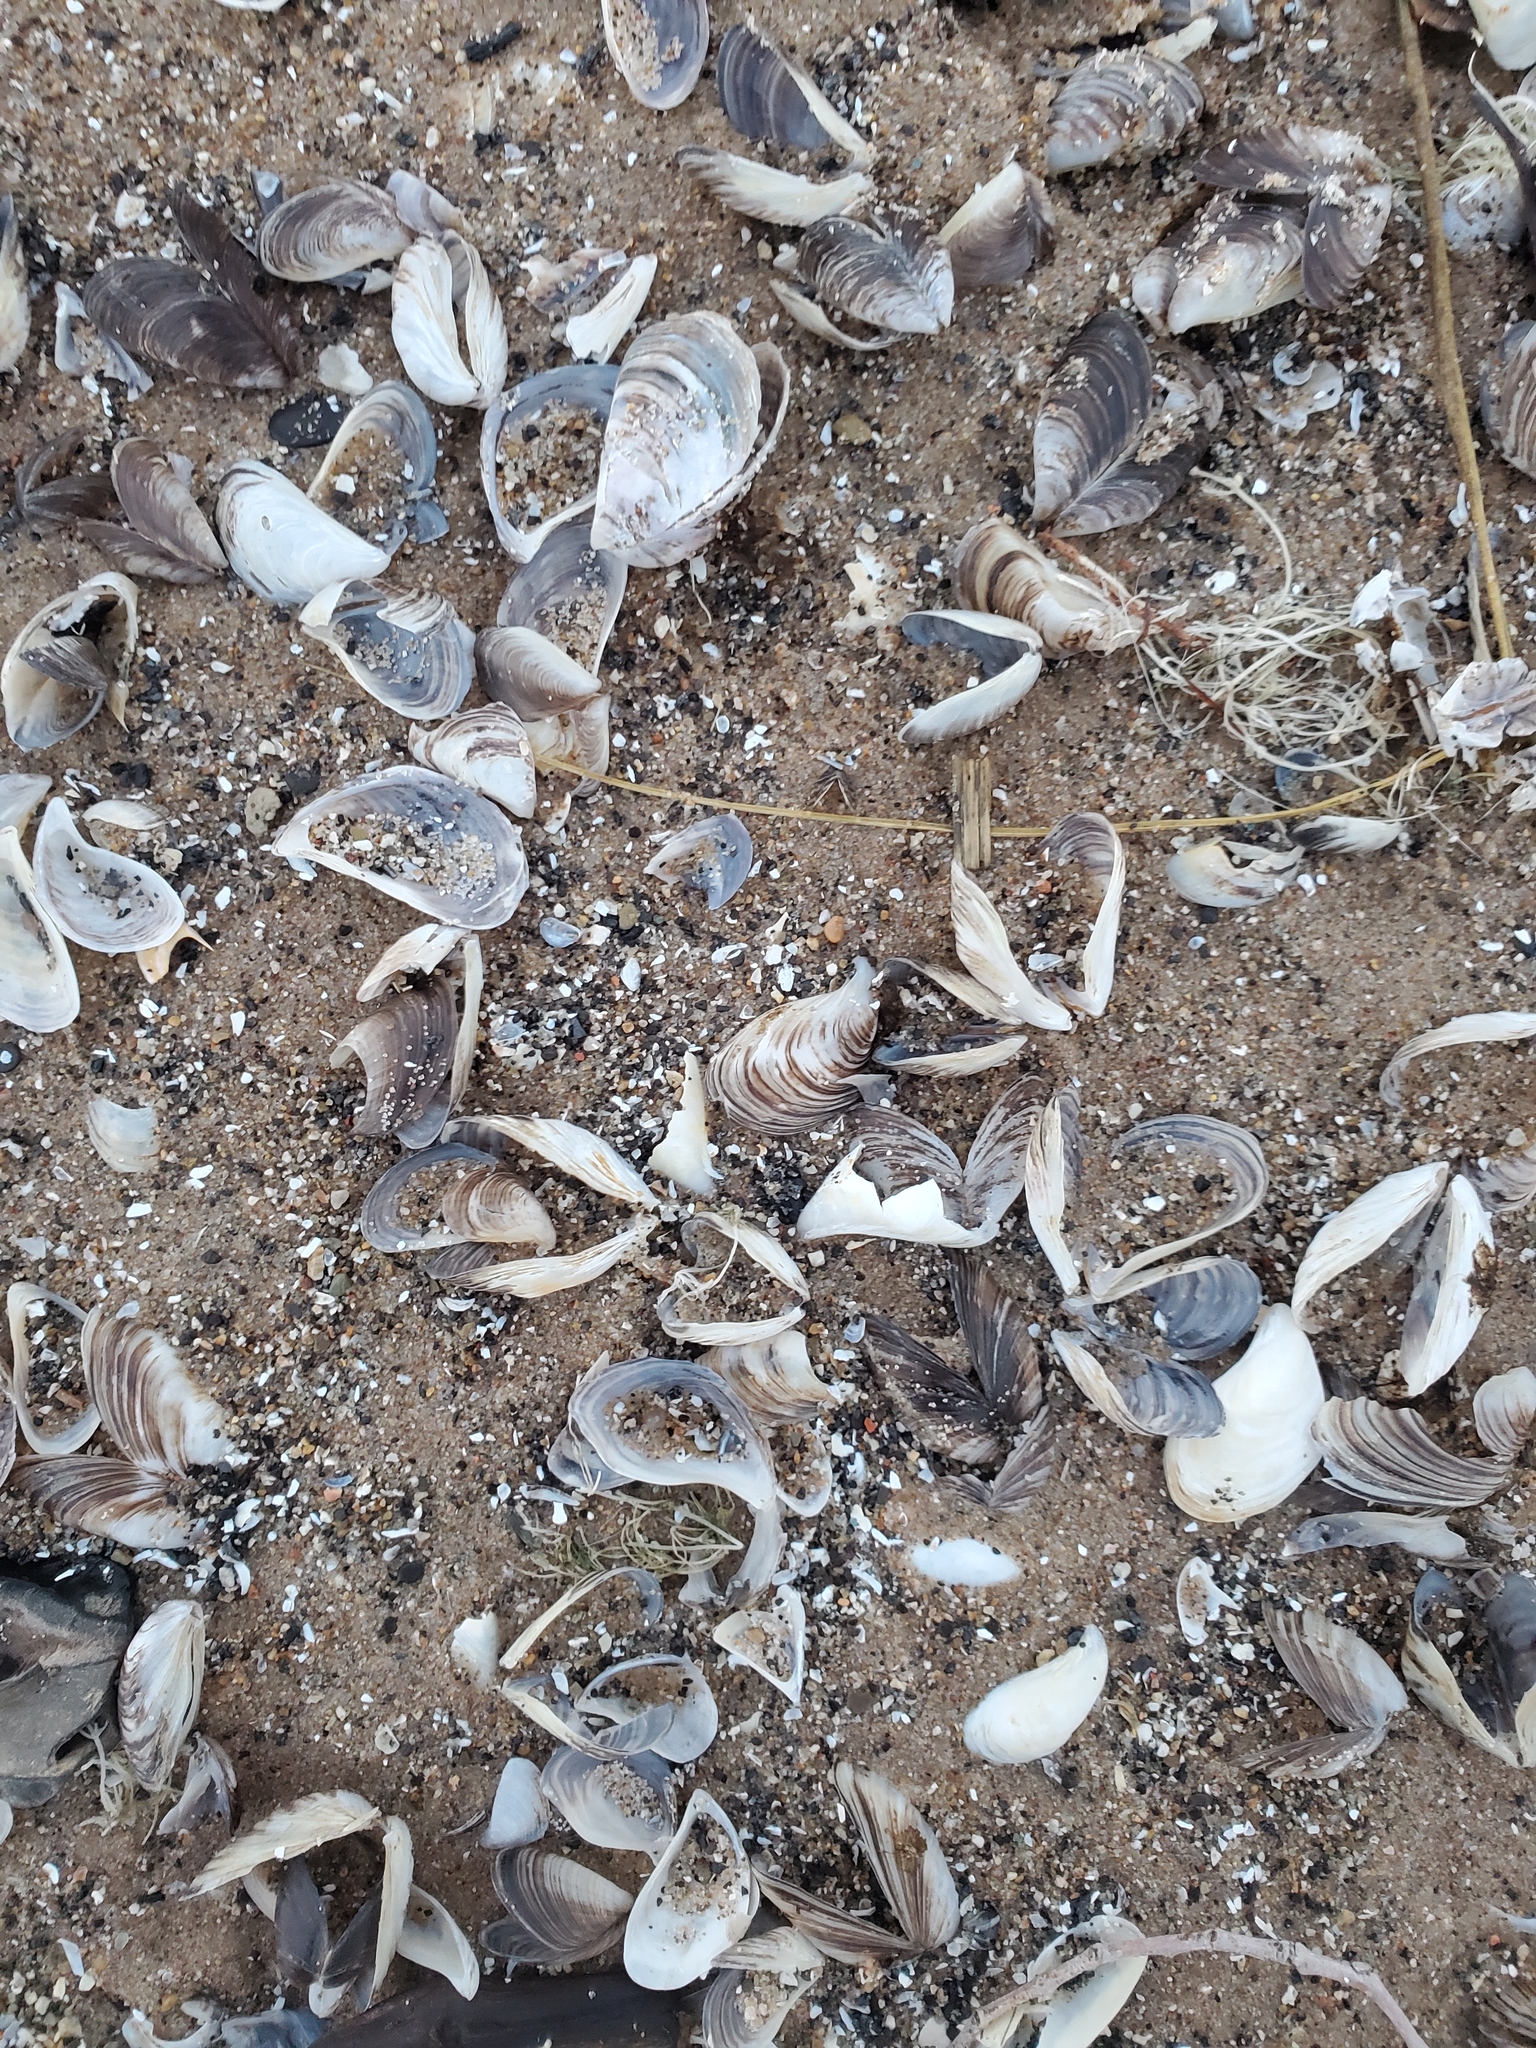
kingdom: Animalia
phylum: Mollusca
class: Bivalvia
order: Myida
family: Dreissenidae
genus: Dreissena
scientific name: Dreissena polymorpha
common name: Zebra mussel
